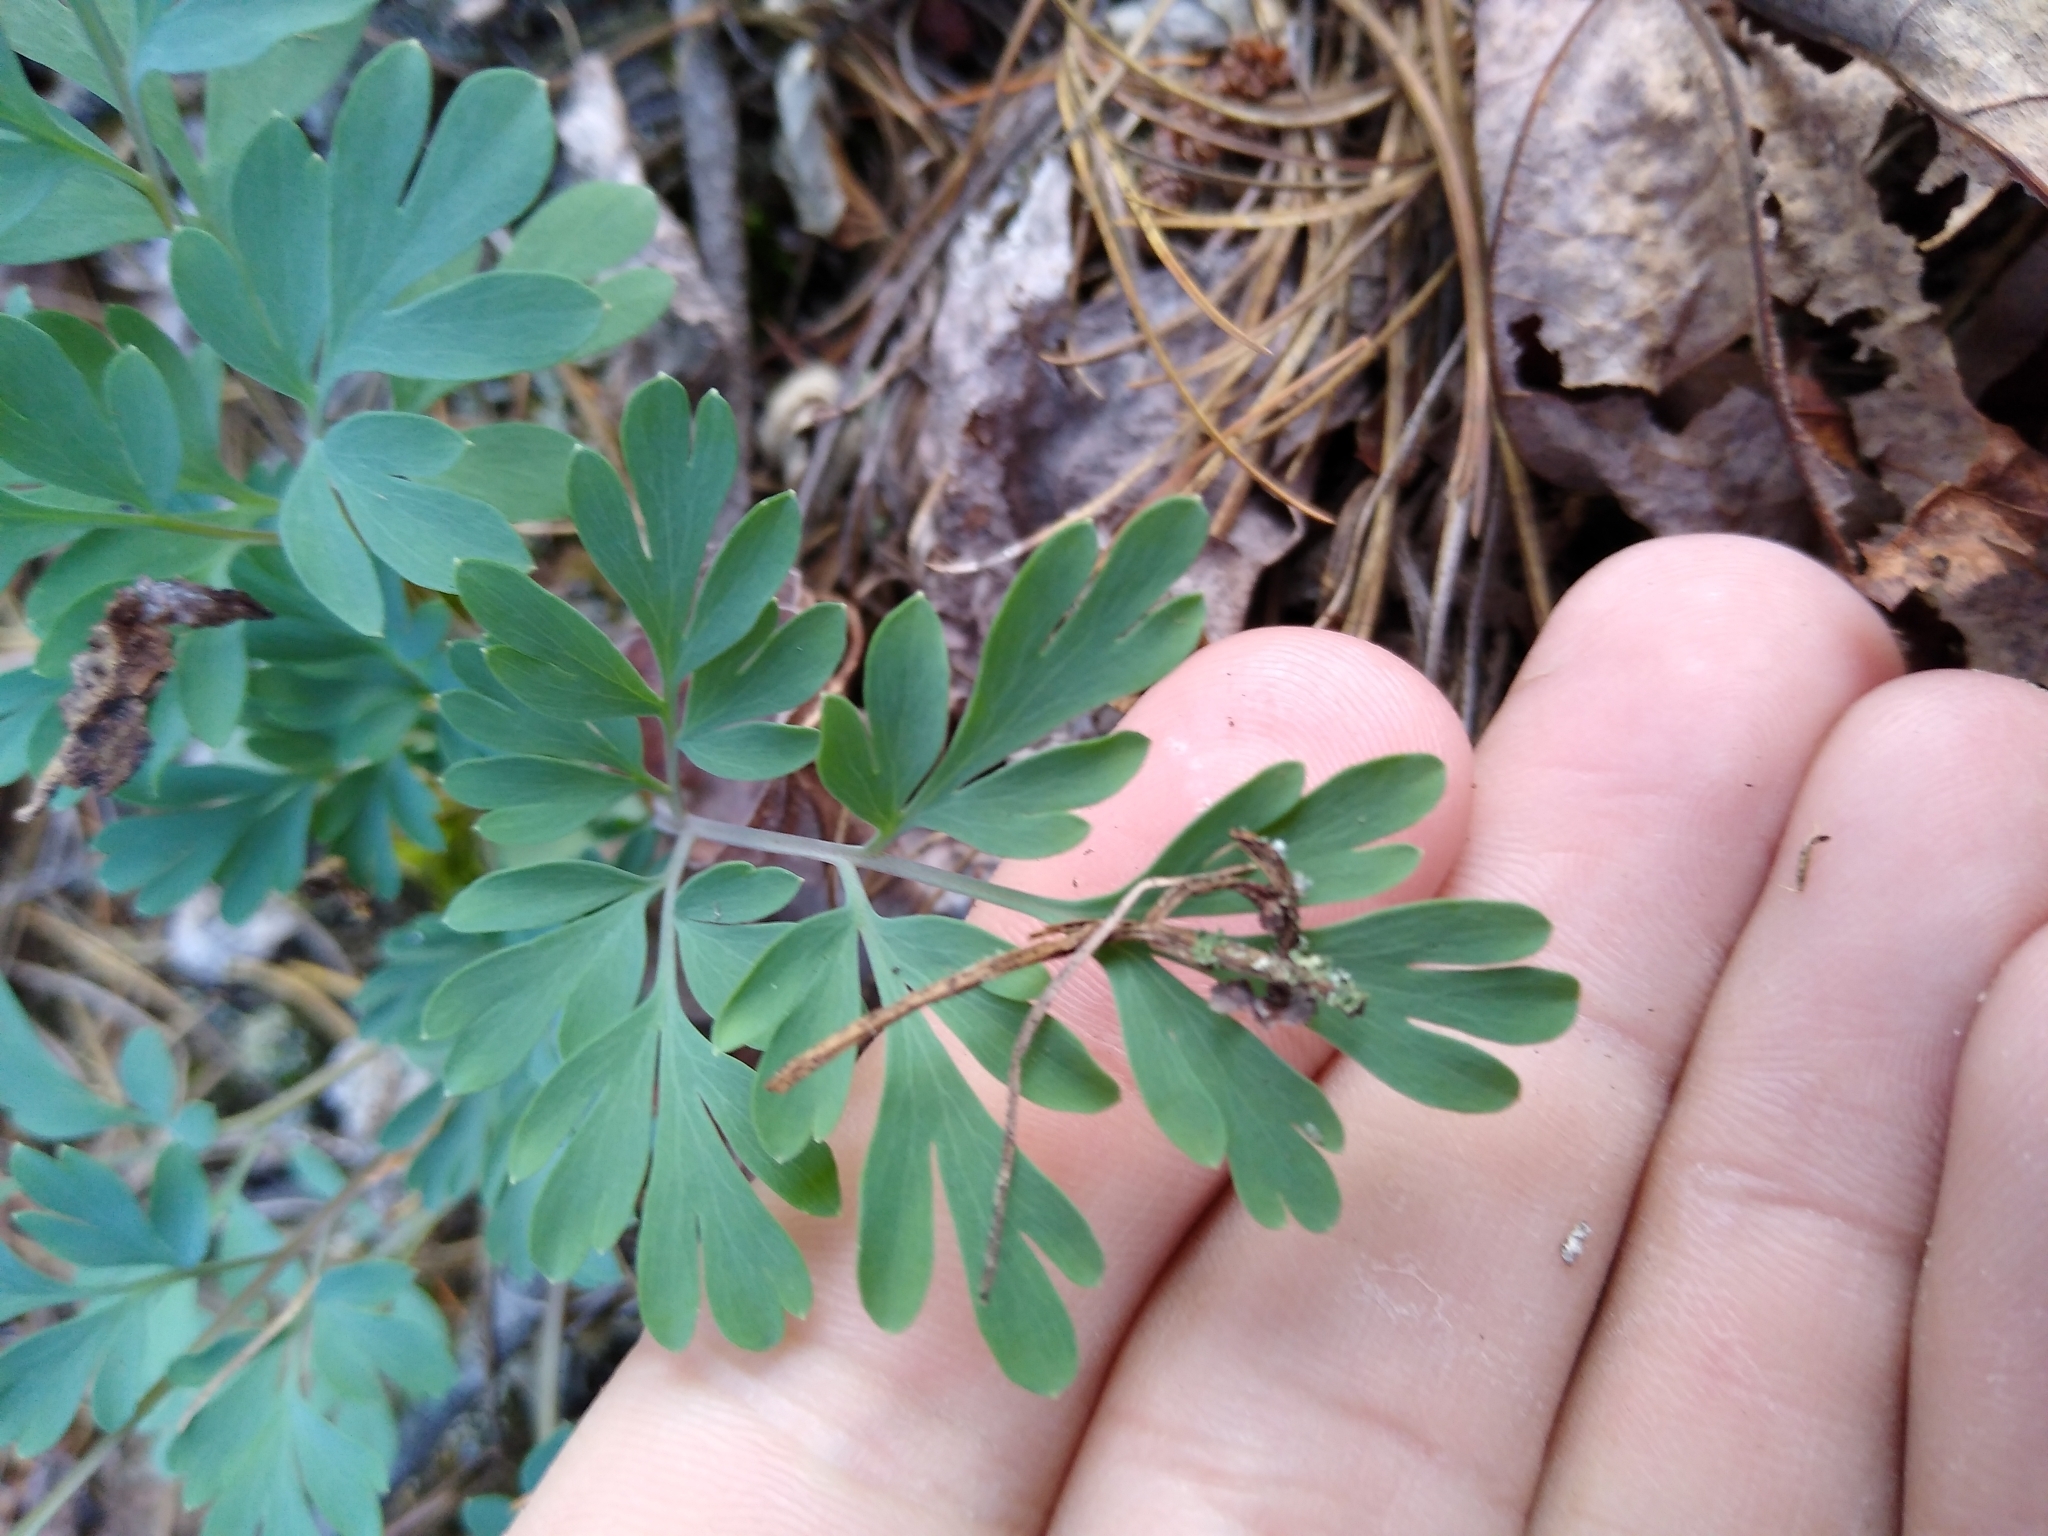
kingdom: Plantae
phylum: Tracheophyta
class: Magnoliopsida
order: Ranunculales
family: Papaveraceae
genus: Capnoides
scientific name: Capnoides sempervirens
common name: Rock harlequin
